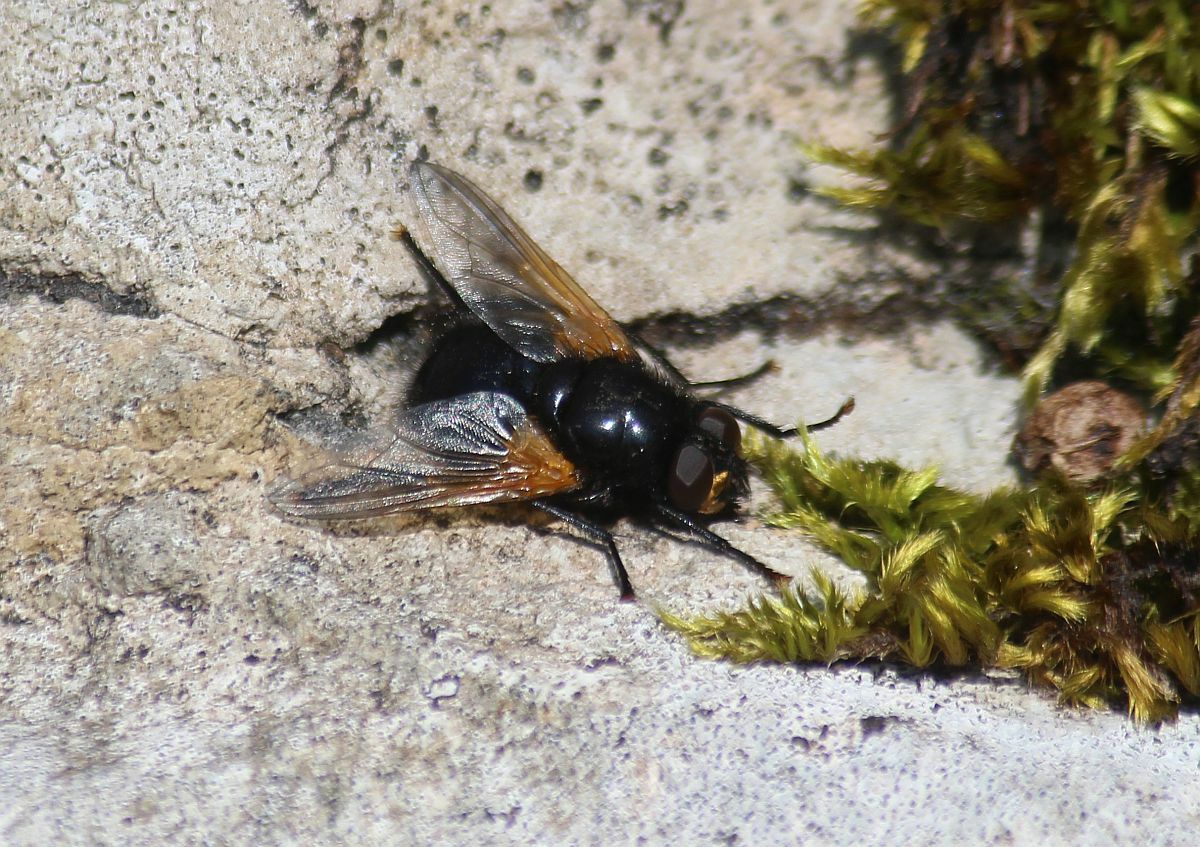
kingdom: Animalia
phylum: Arthropoda
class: Insecta
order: Diptera
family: Muscidae
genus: Mesembrina
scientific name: Mesembrina meridiana
